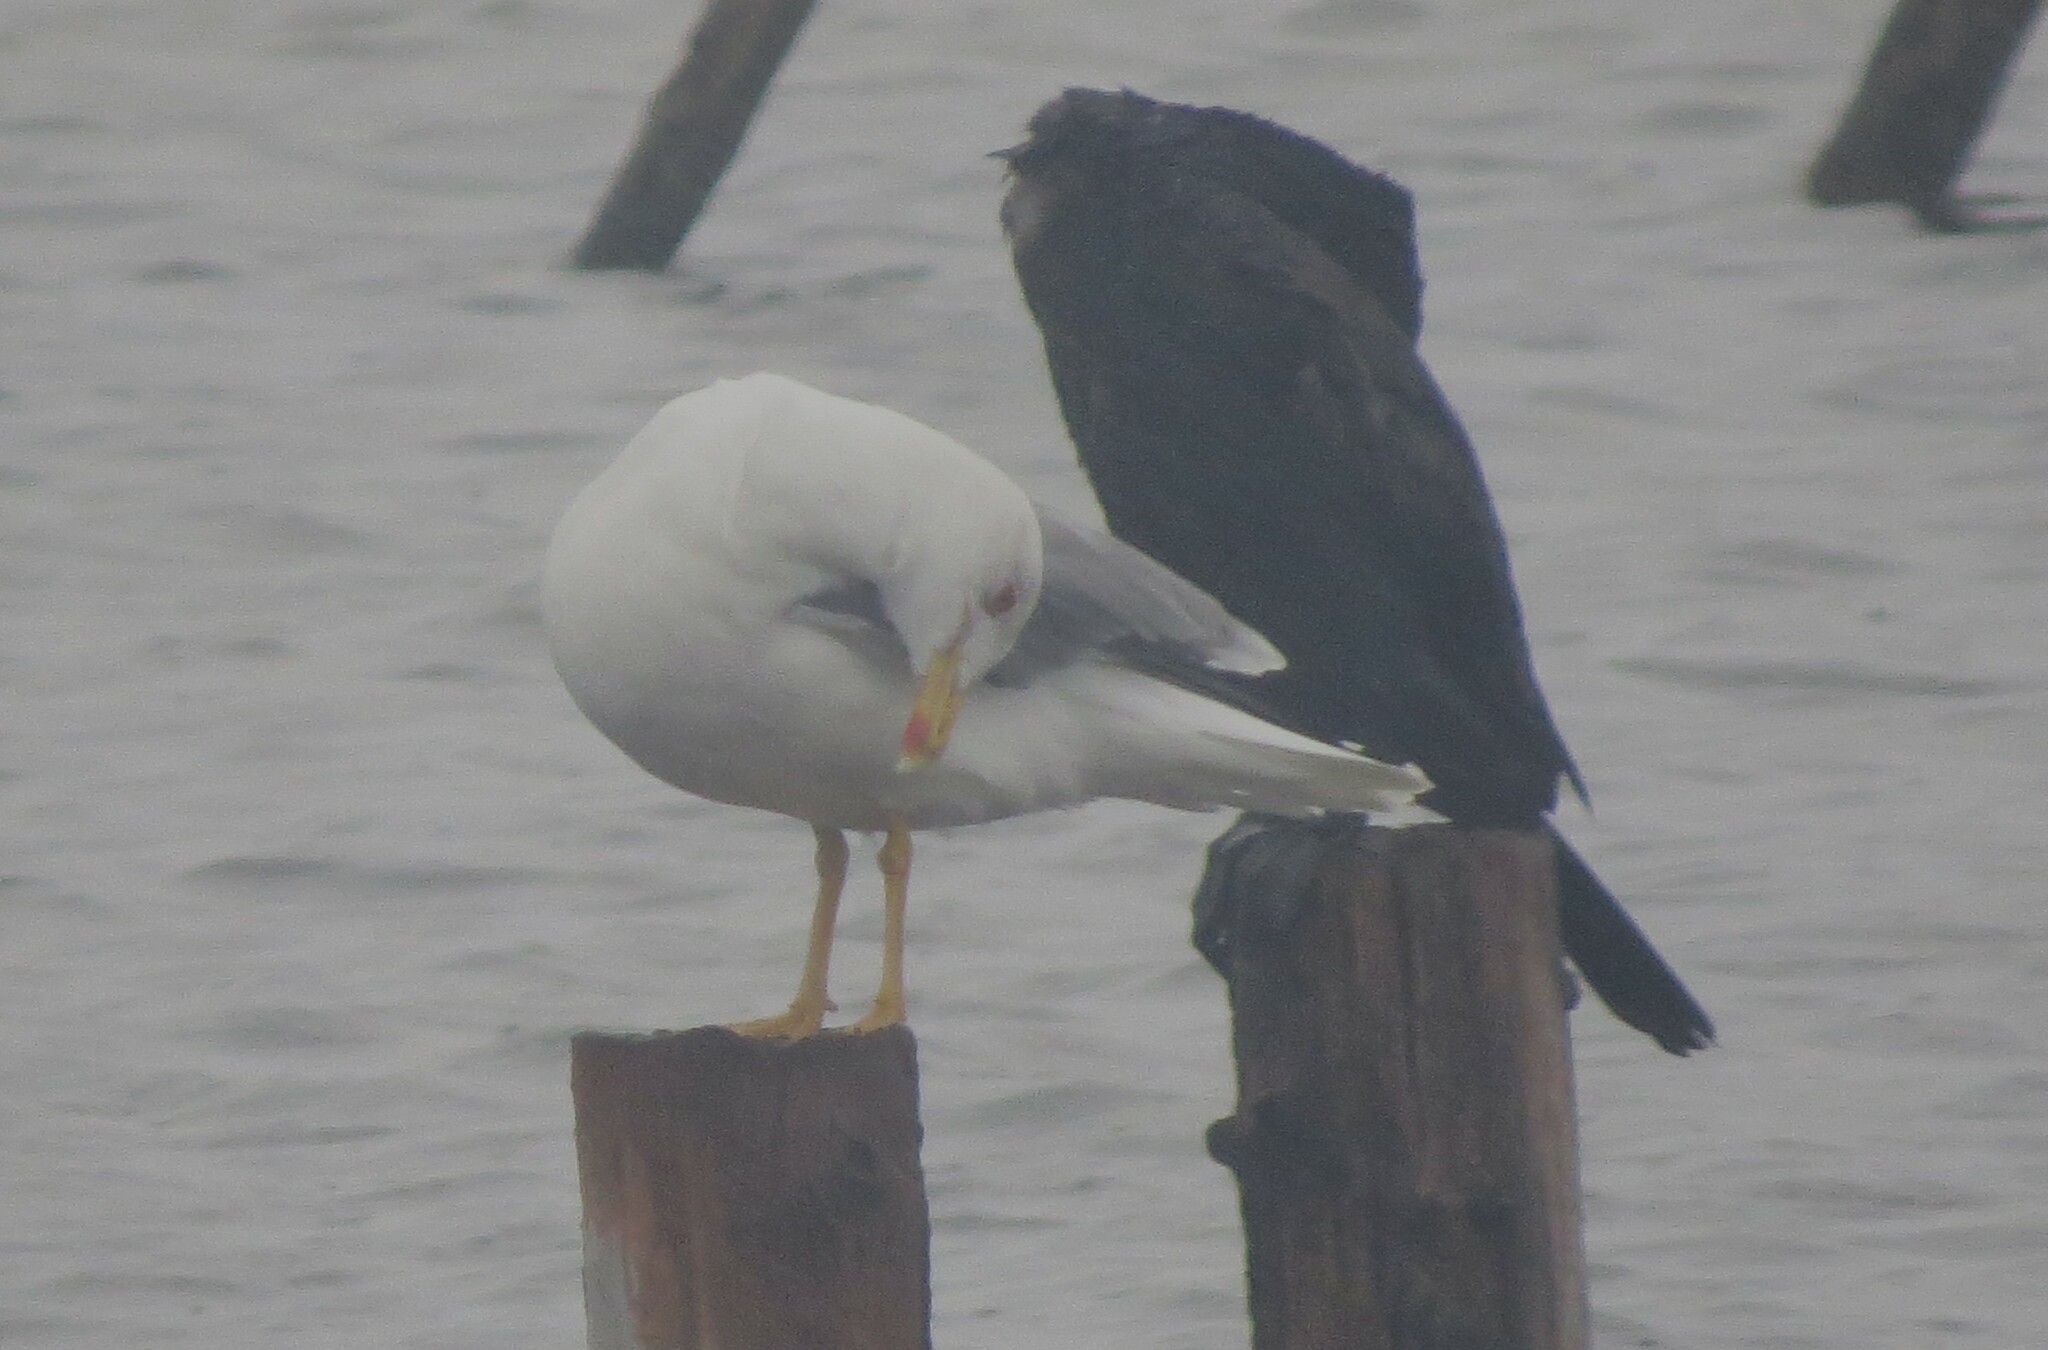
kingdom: Animalia
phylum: Chordata
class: Aves
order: Charadriiformes
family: Laridae
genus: Larus
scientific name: Larus michahellis
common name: Yellow-legged gull
